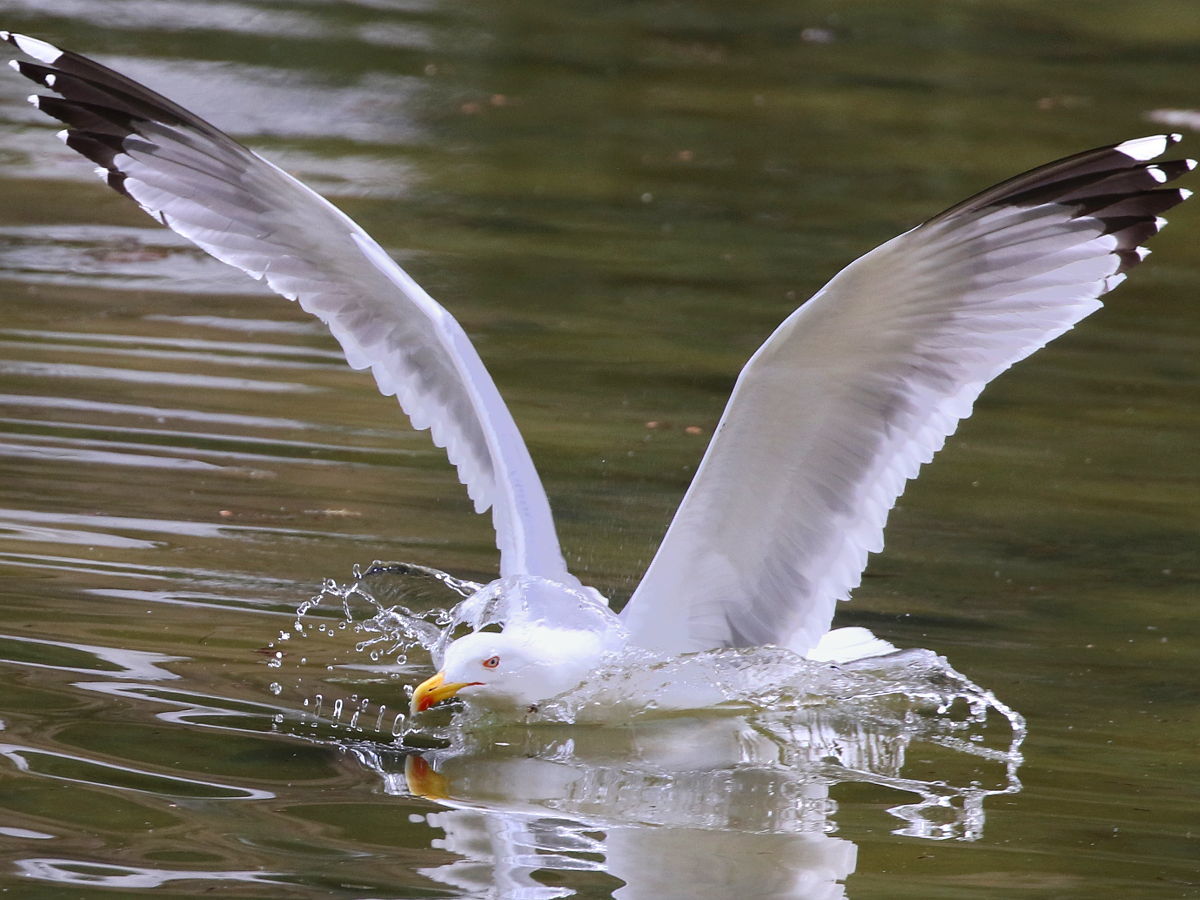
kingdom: Animalia
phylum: Chordata
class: Aves
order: Charadriiformes
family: Laridae
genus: Larus
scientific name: Larus michahellis
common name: Yellow-legged gull
